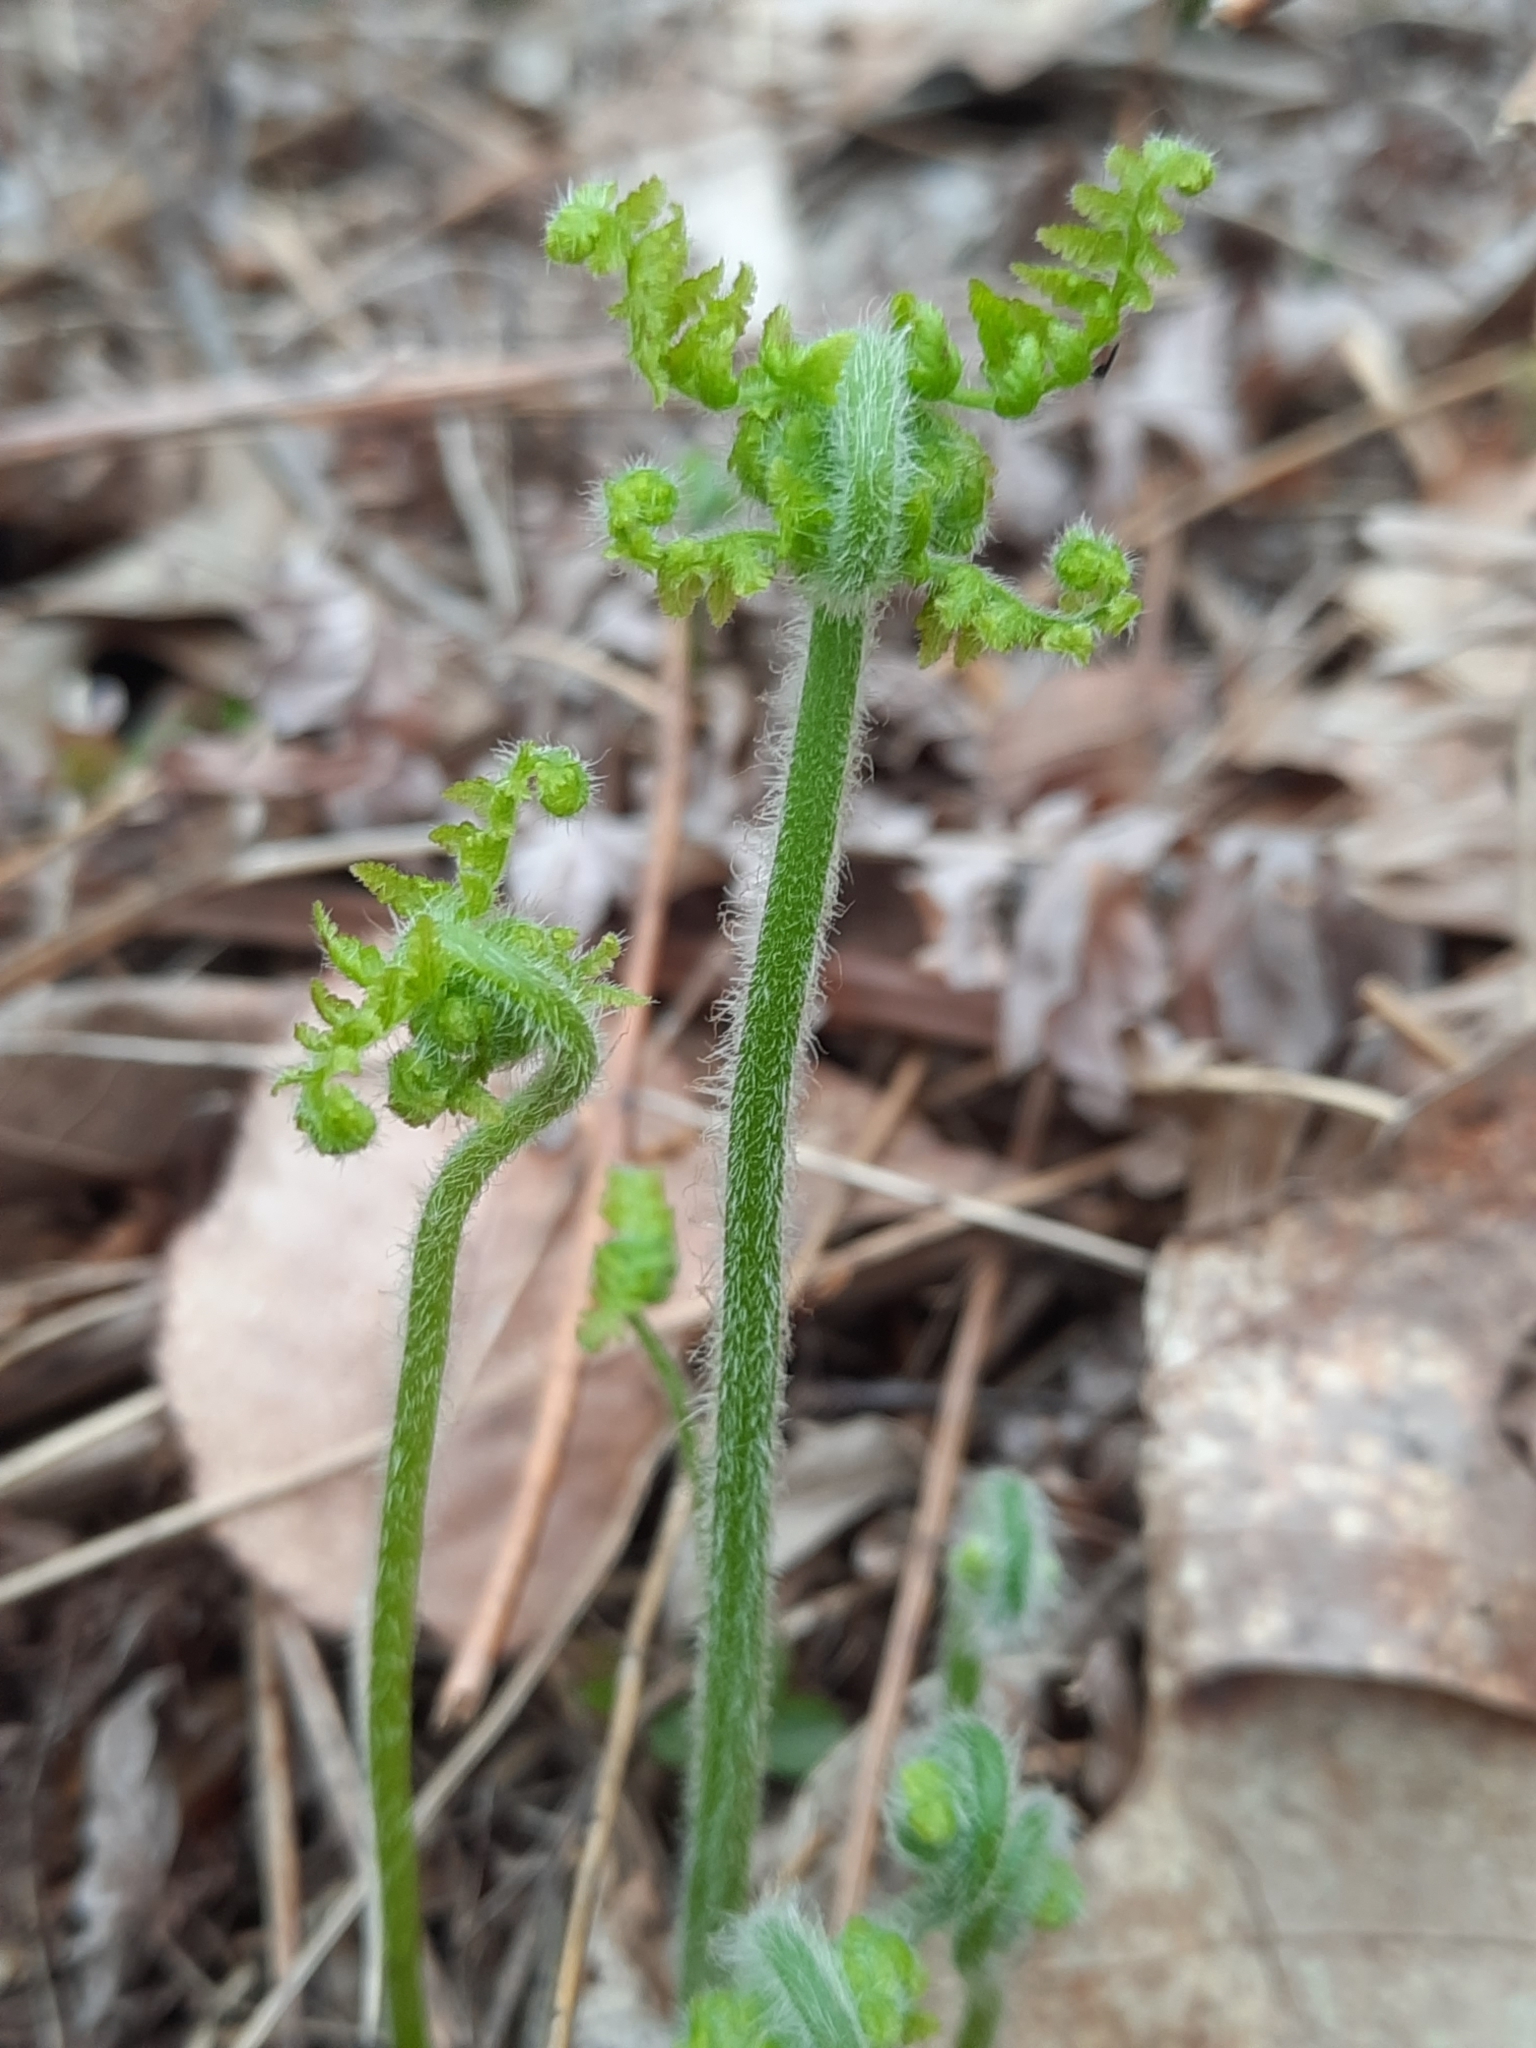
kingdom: Plantae
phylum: Tracheophyta
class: Polypodiopsida
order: Polypodiales
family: Dennstaedtiaceae
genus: Sitobolium
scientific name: Sitobolium punctilobum
